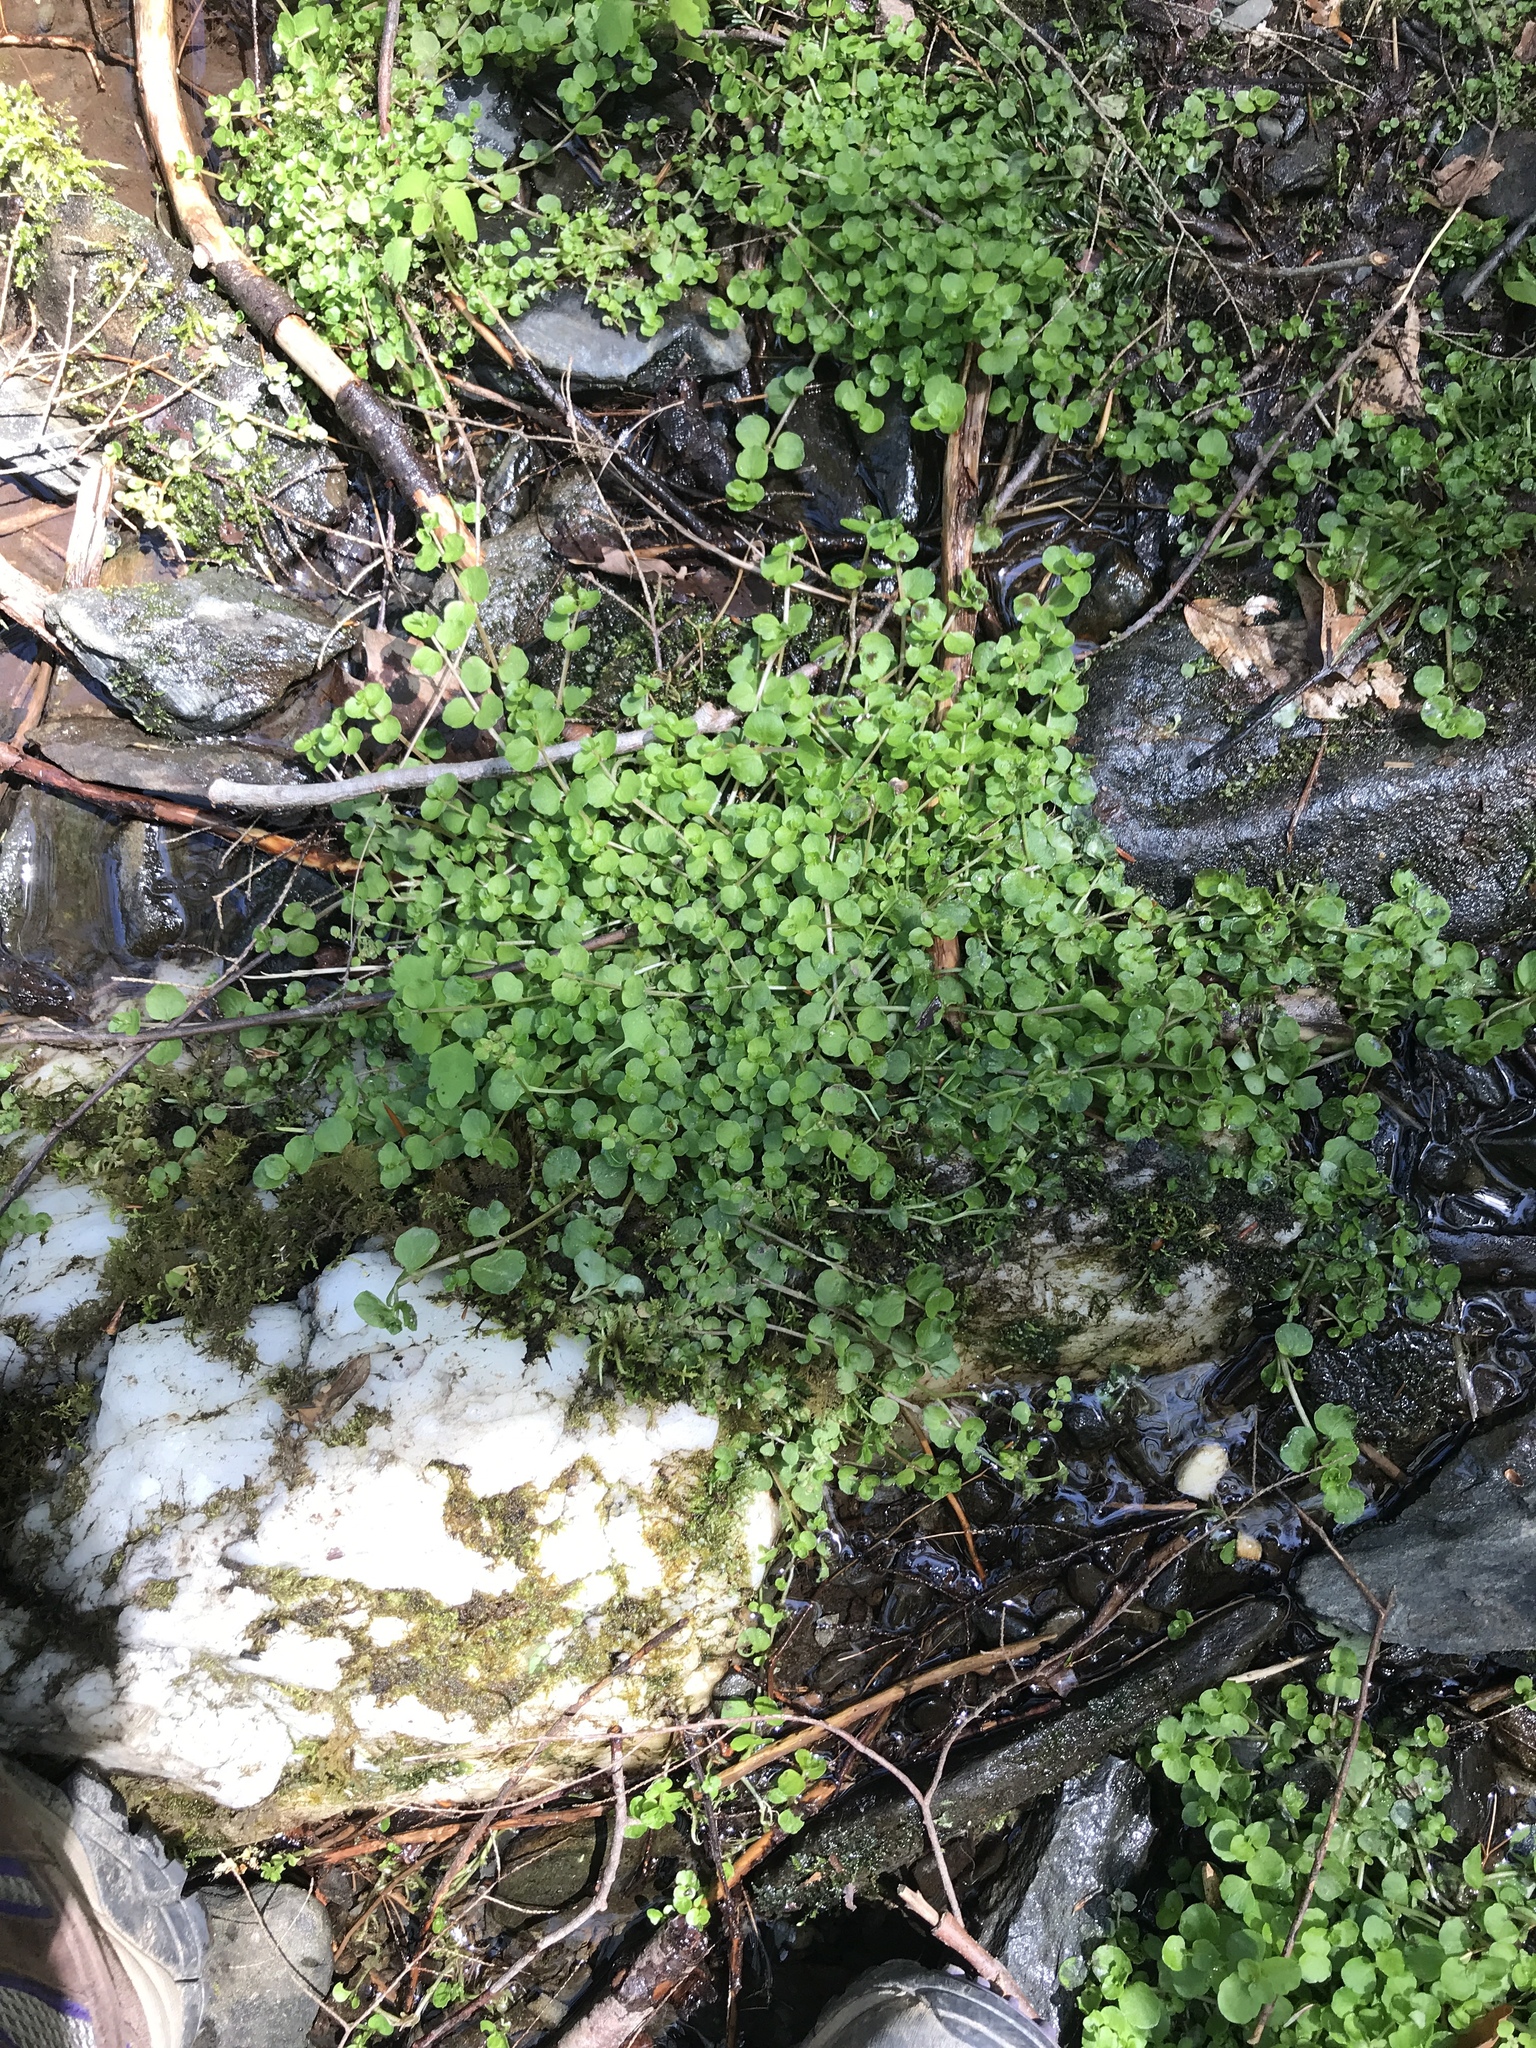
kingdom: Plantae
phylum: Tracheophyta
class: Magnoliopsida
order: Saxifragales
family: Saxifragaceae
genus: Chrysosplenium
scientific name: Chrysosplenium americanum
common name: American golden-saxifrage
